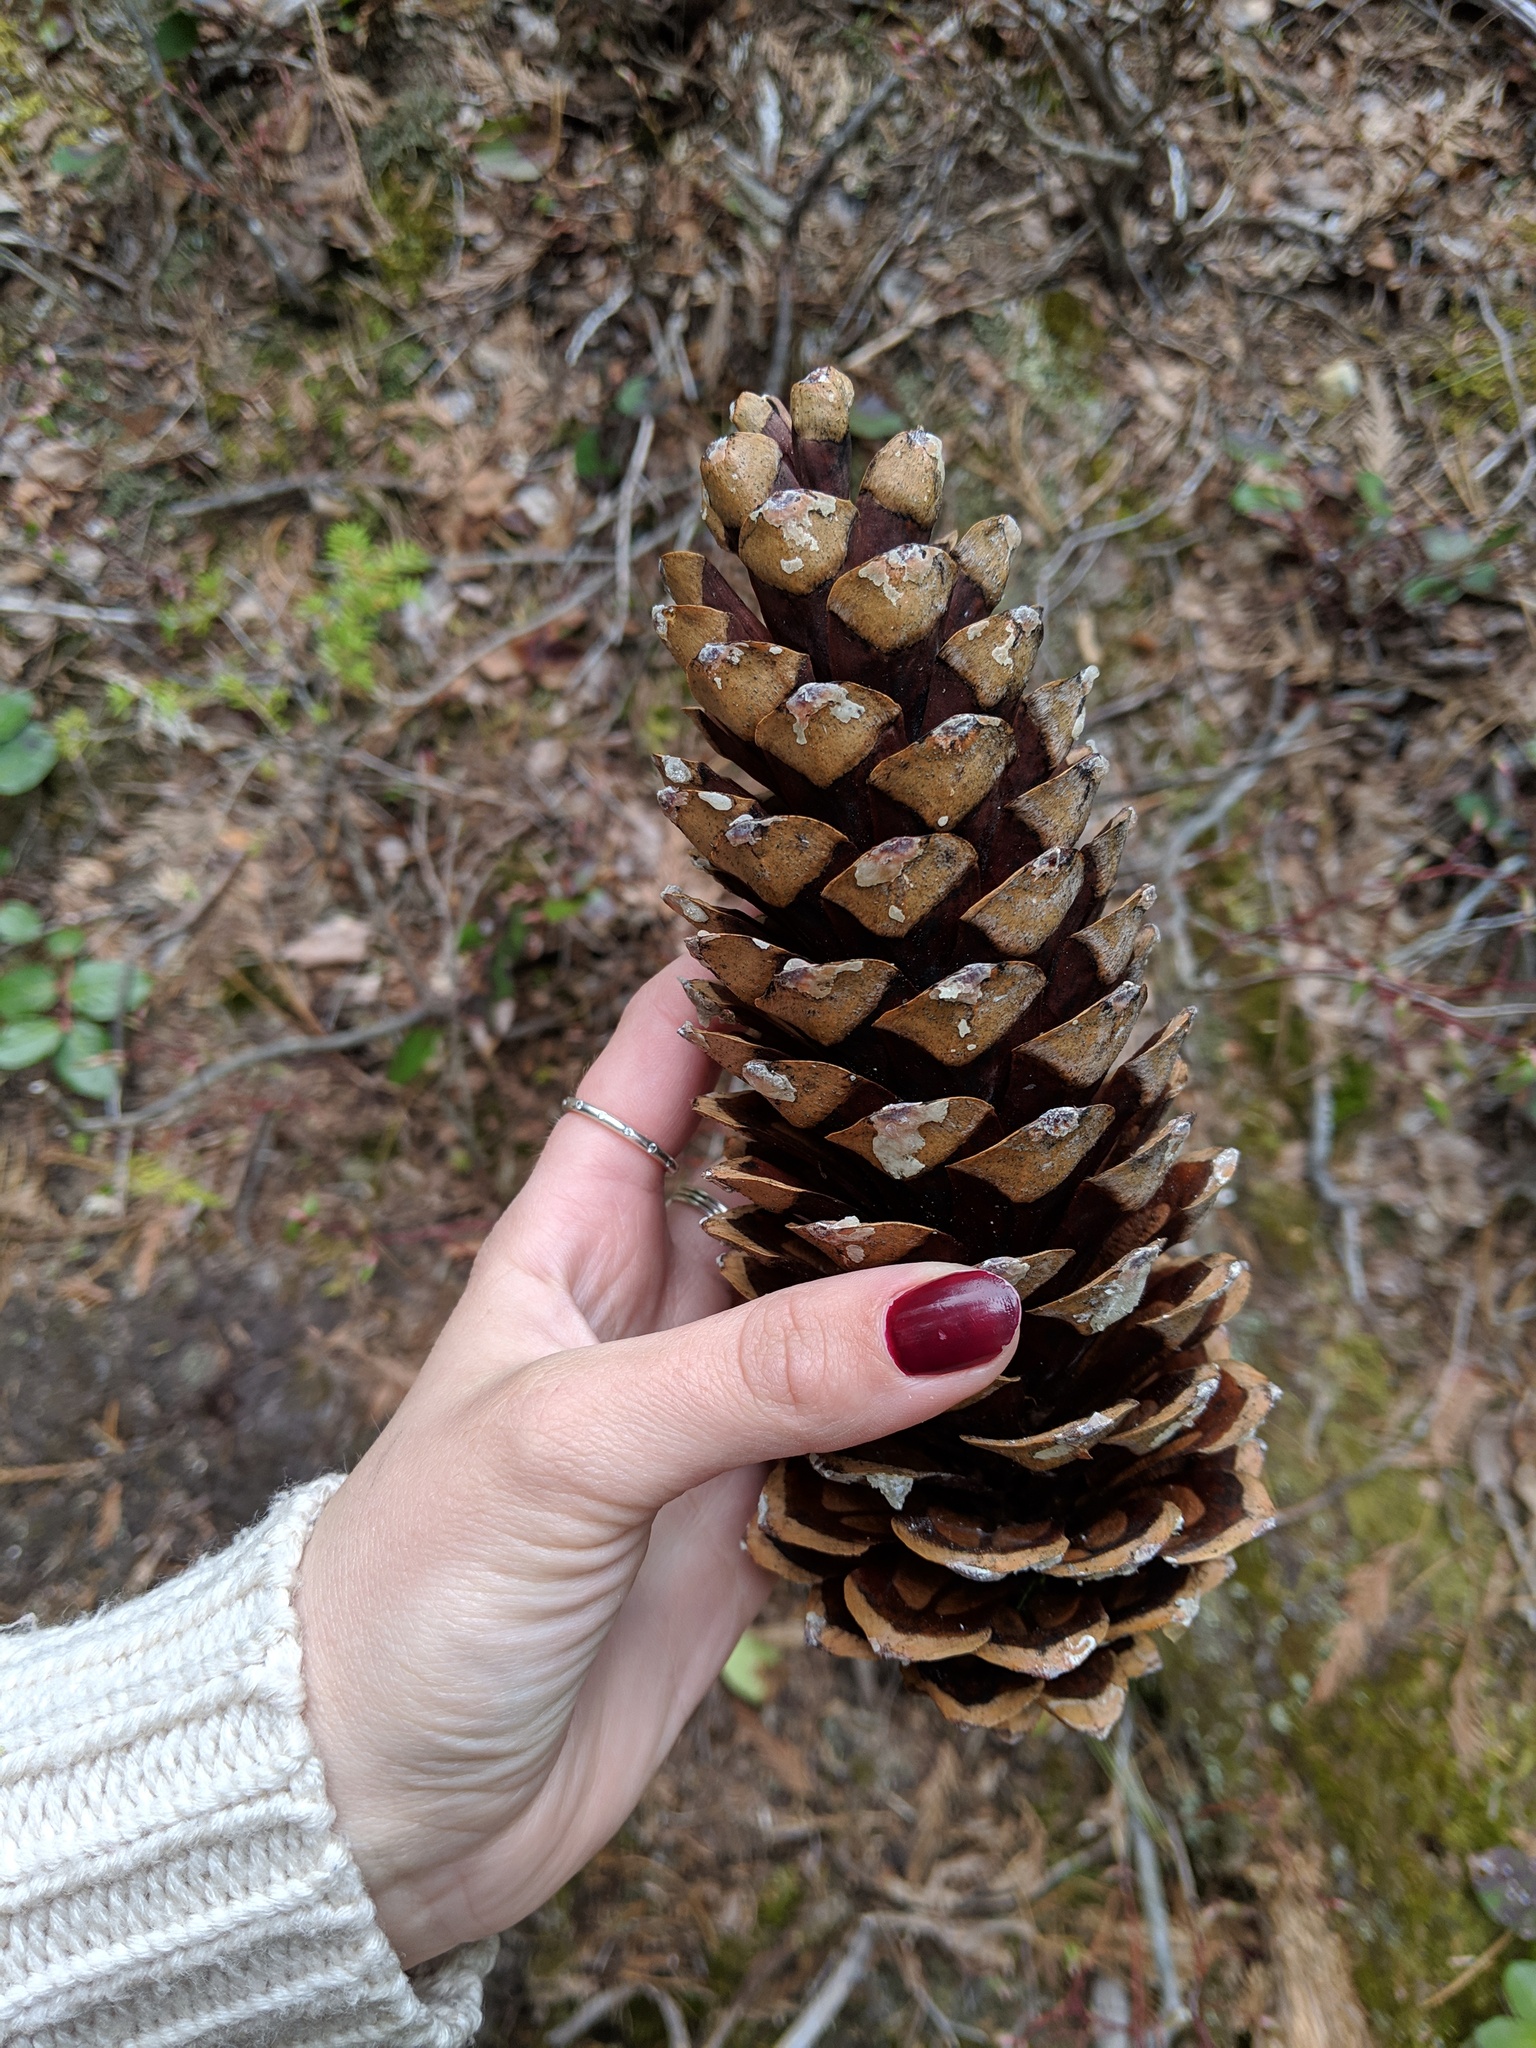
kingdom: Plantae
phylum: Tracheophyta
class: Pinopsida
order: Pinales
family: Pinaceae
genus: Pinus
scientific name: Pinus monticola
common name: Western white pine
